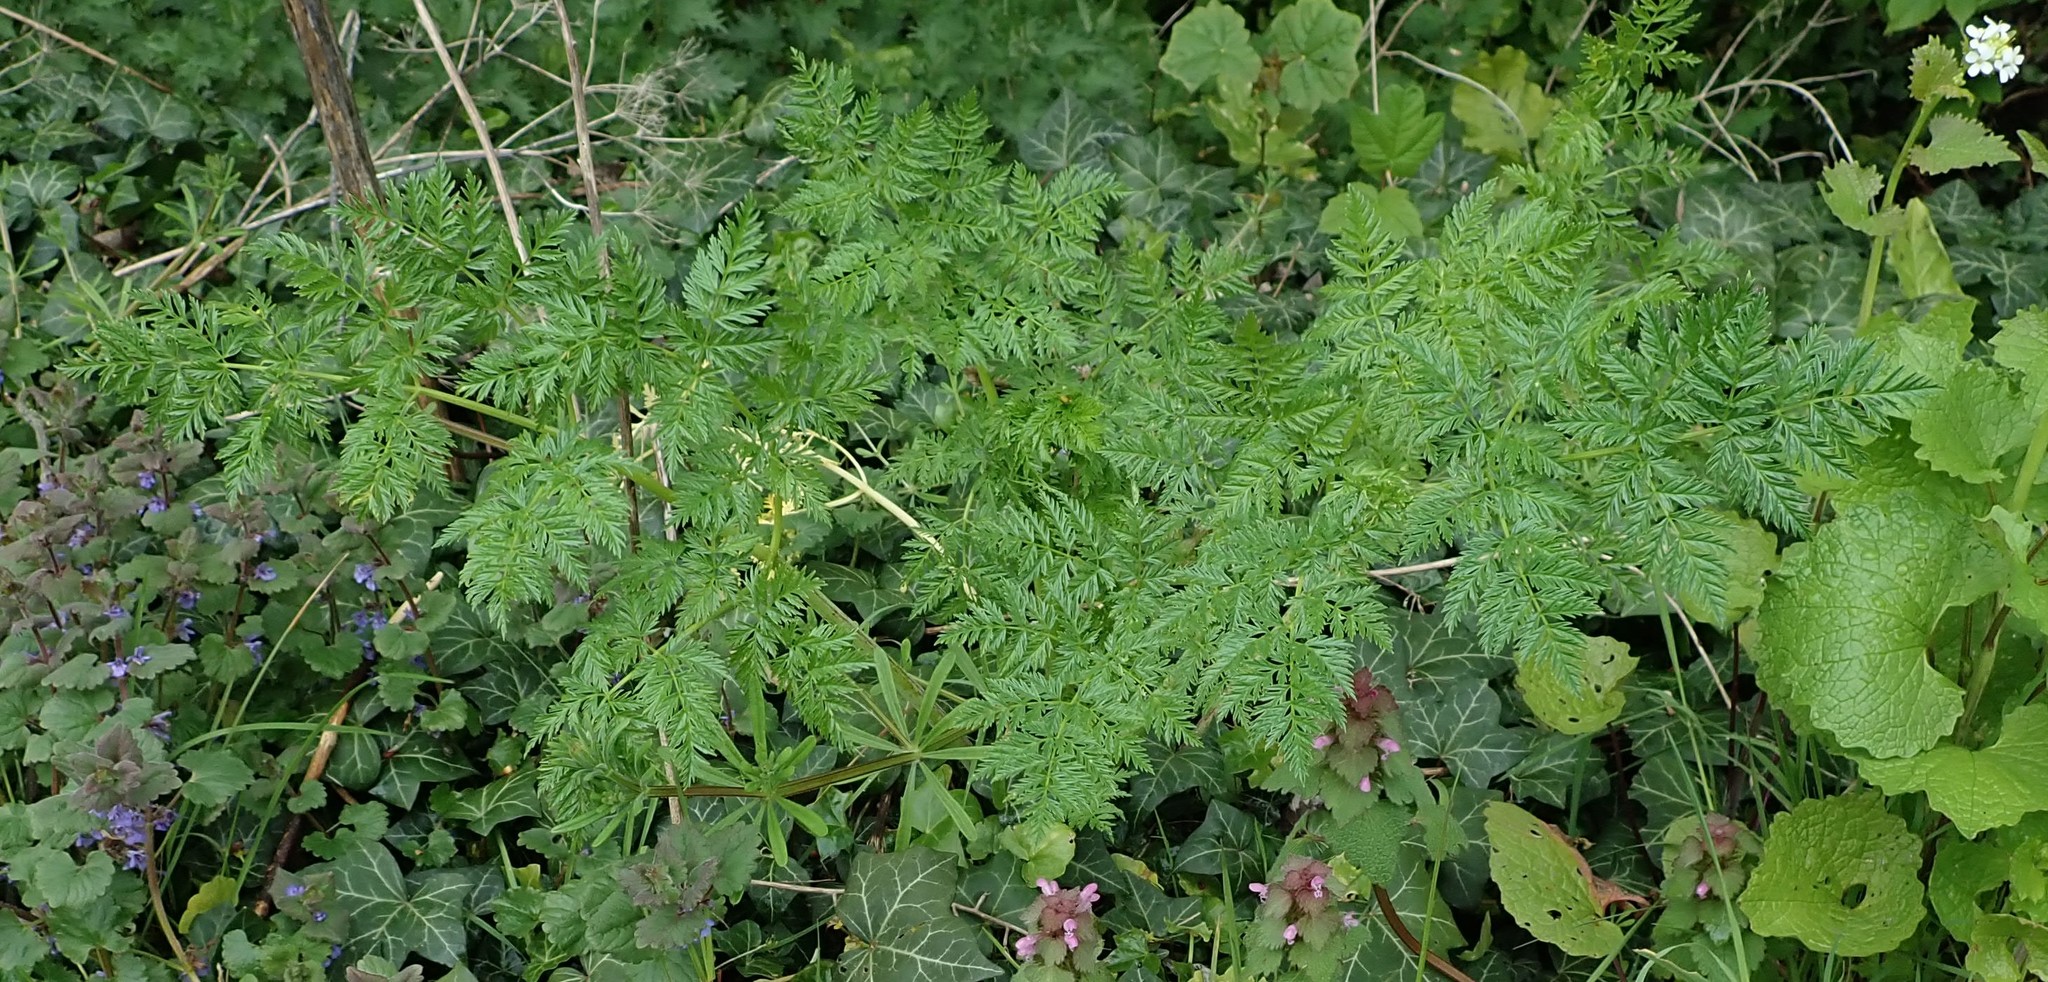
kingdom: Plantae
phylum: Tracheophyta
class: Magnoliopsida
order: Apiales
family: Apiaceae
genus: Conium
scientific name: Conium maculatum
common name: Hemlock
